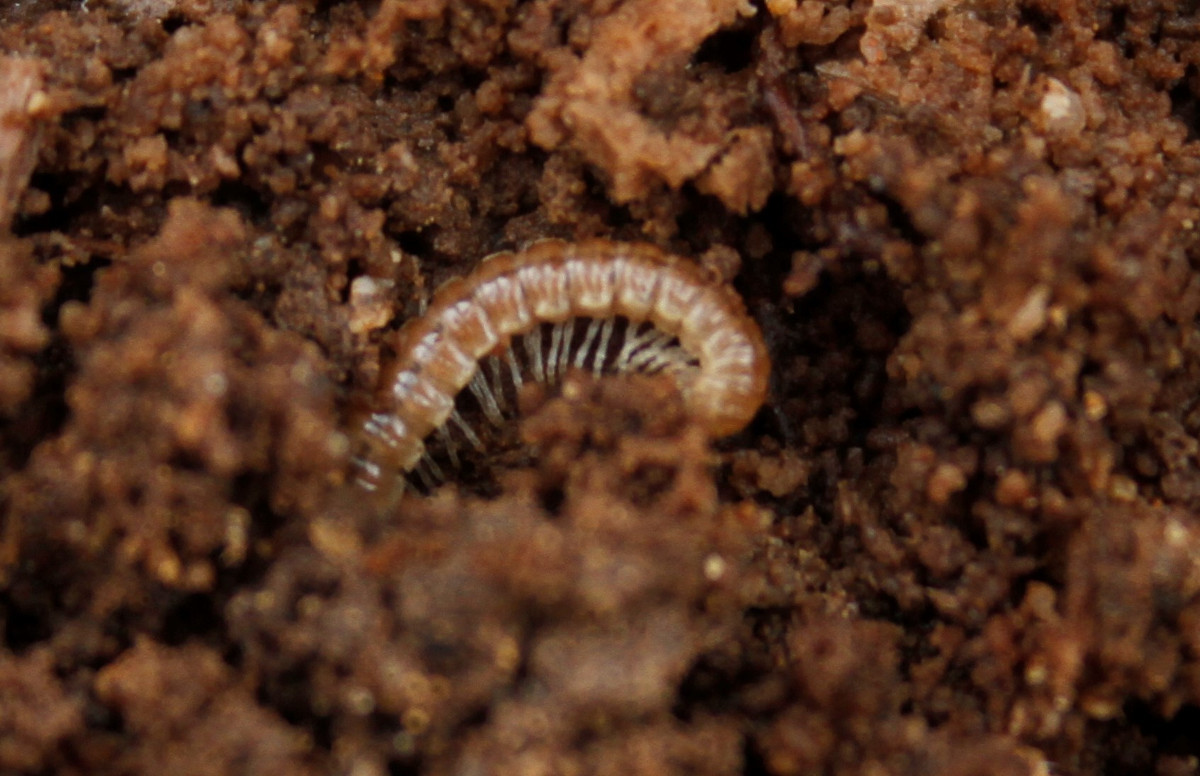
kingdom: Animalia
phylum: Arthropoda
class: Diplopoda
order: Polydesmida
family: Paradoxosomatidae
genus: Oxidus
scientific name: Oxidus gracilis
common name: Greenhouse millipede
